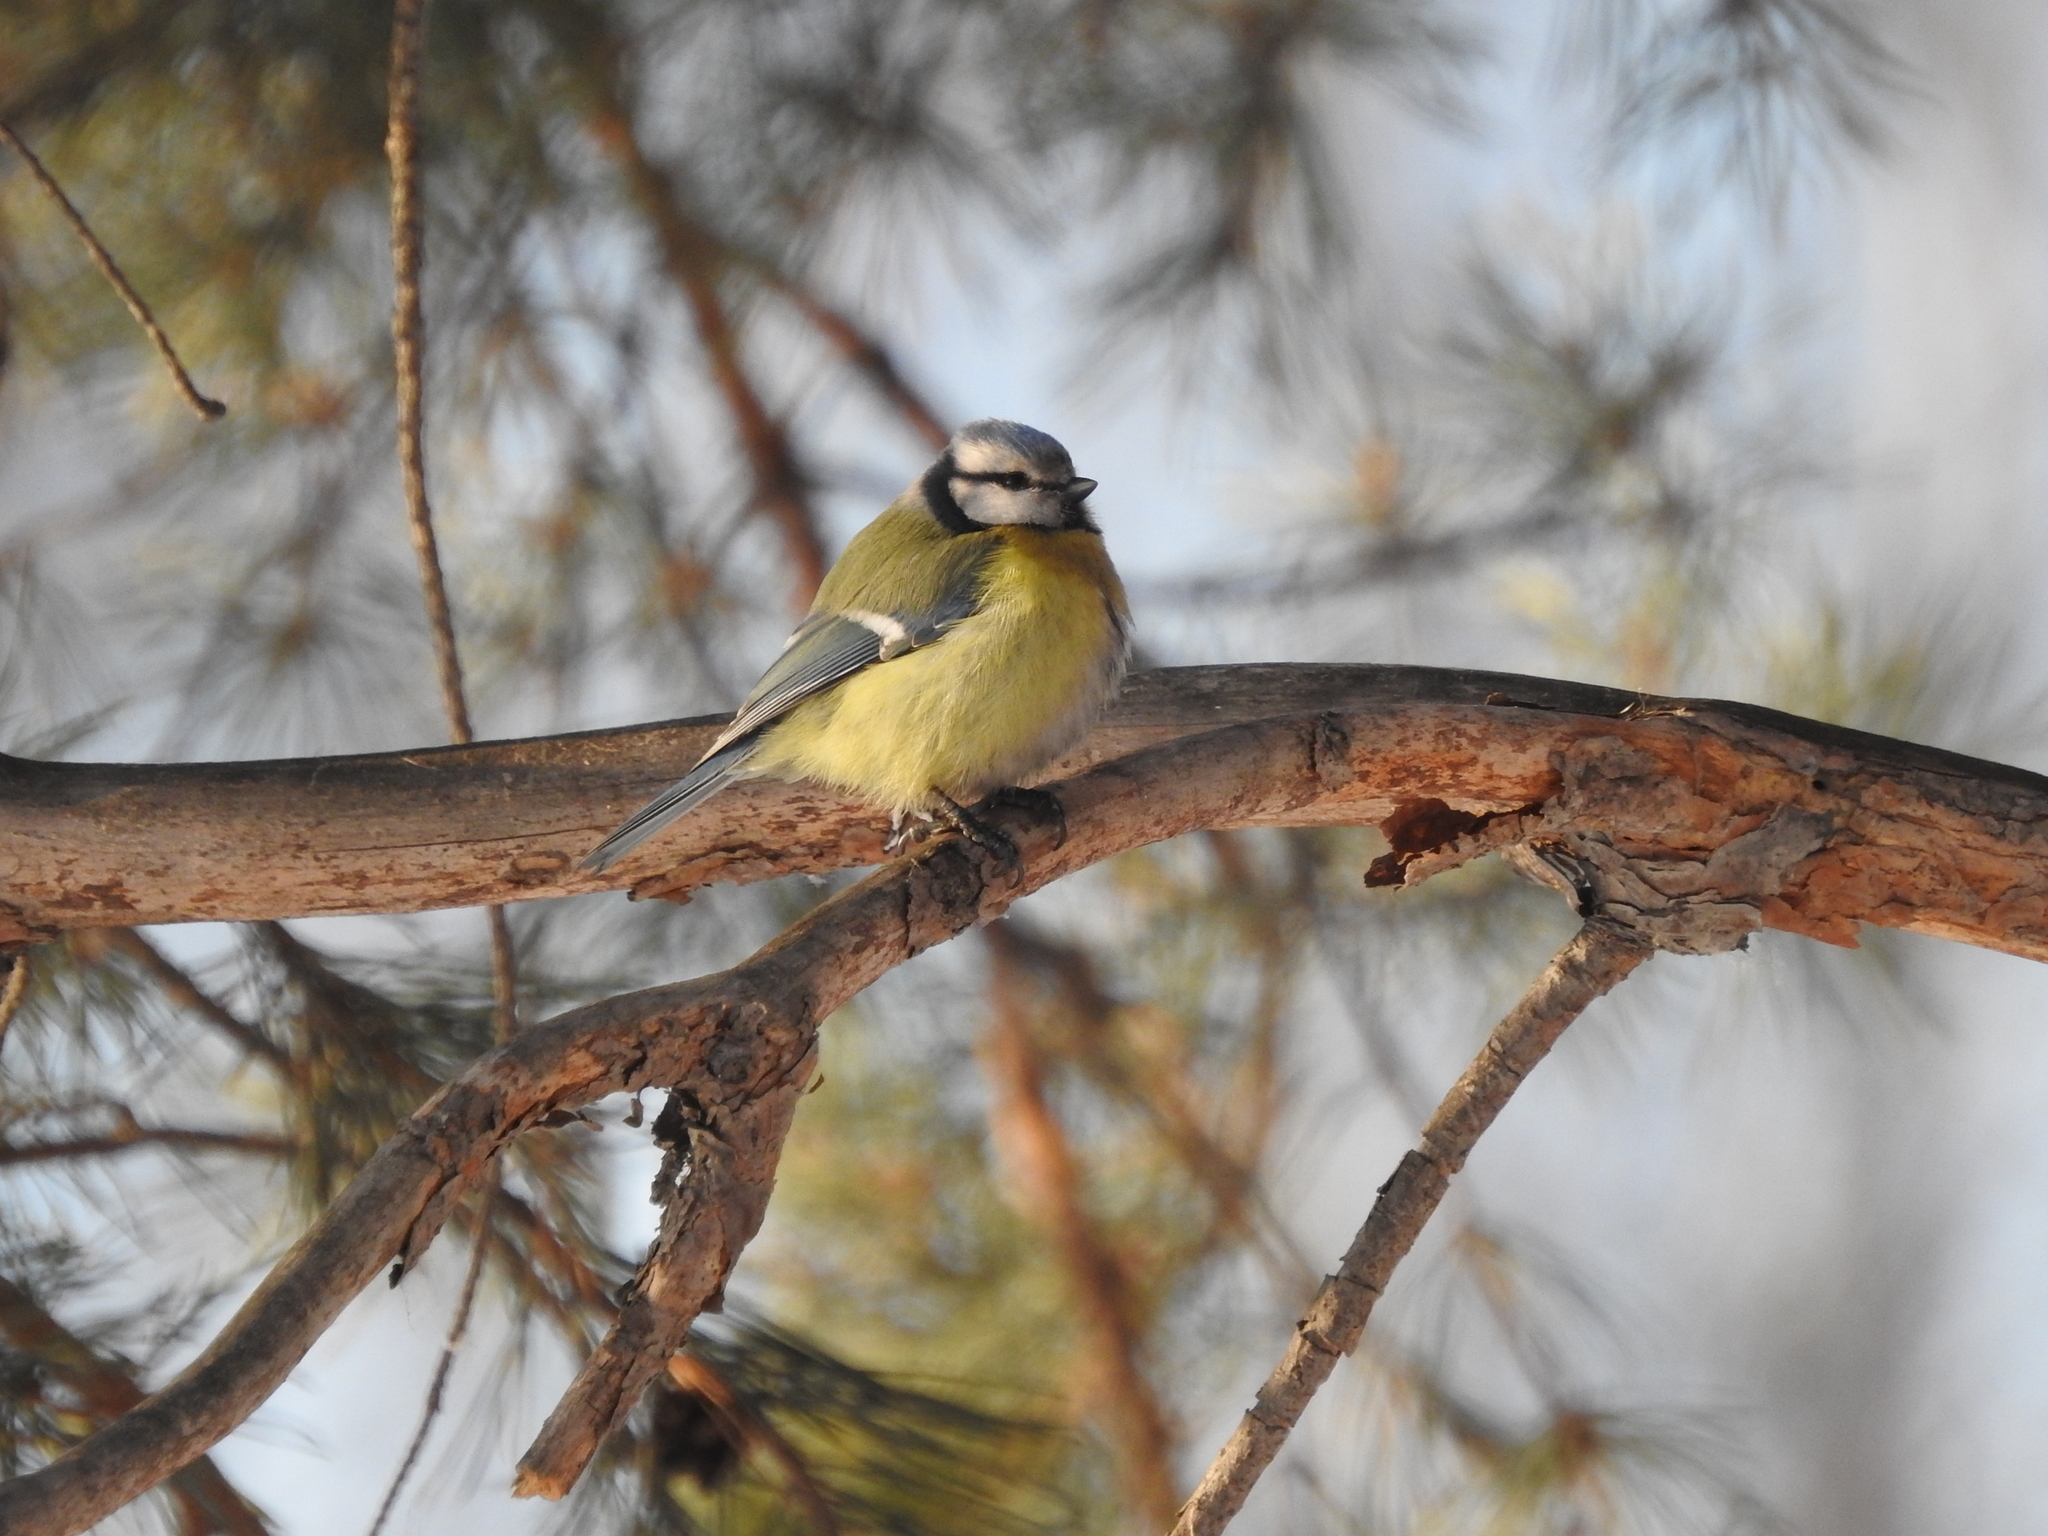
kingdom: Animalia
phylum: Chordata
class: Aves
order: Passeriformes
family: Paridae
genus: Cyanistes
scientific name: Cyanistes caeruleus
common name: Eurasian blue tit
